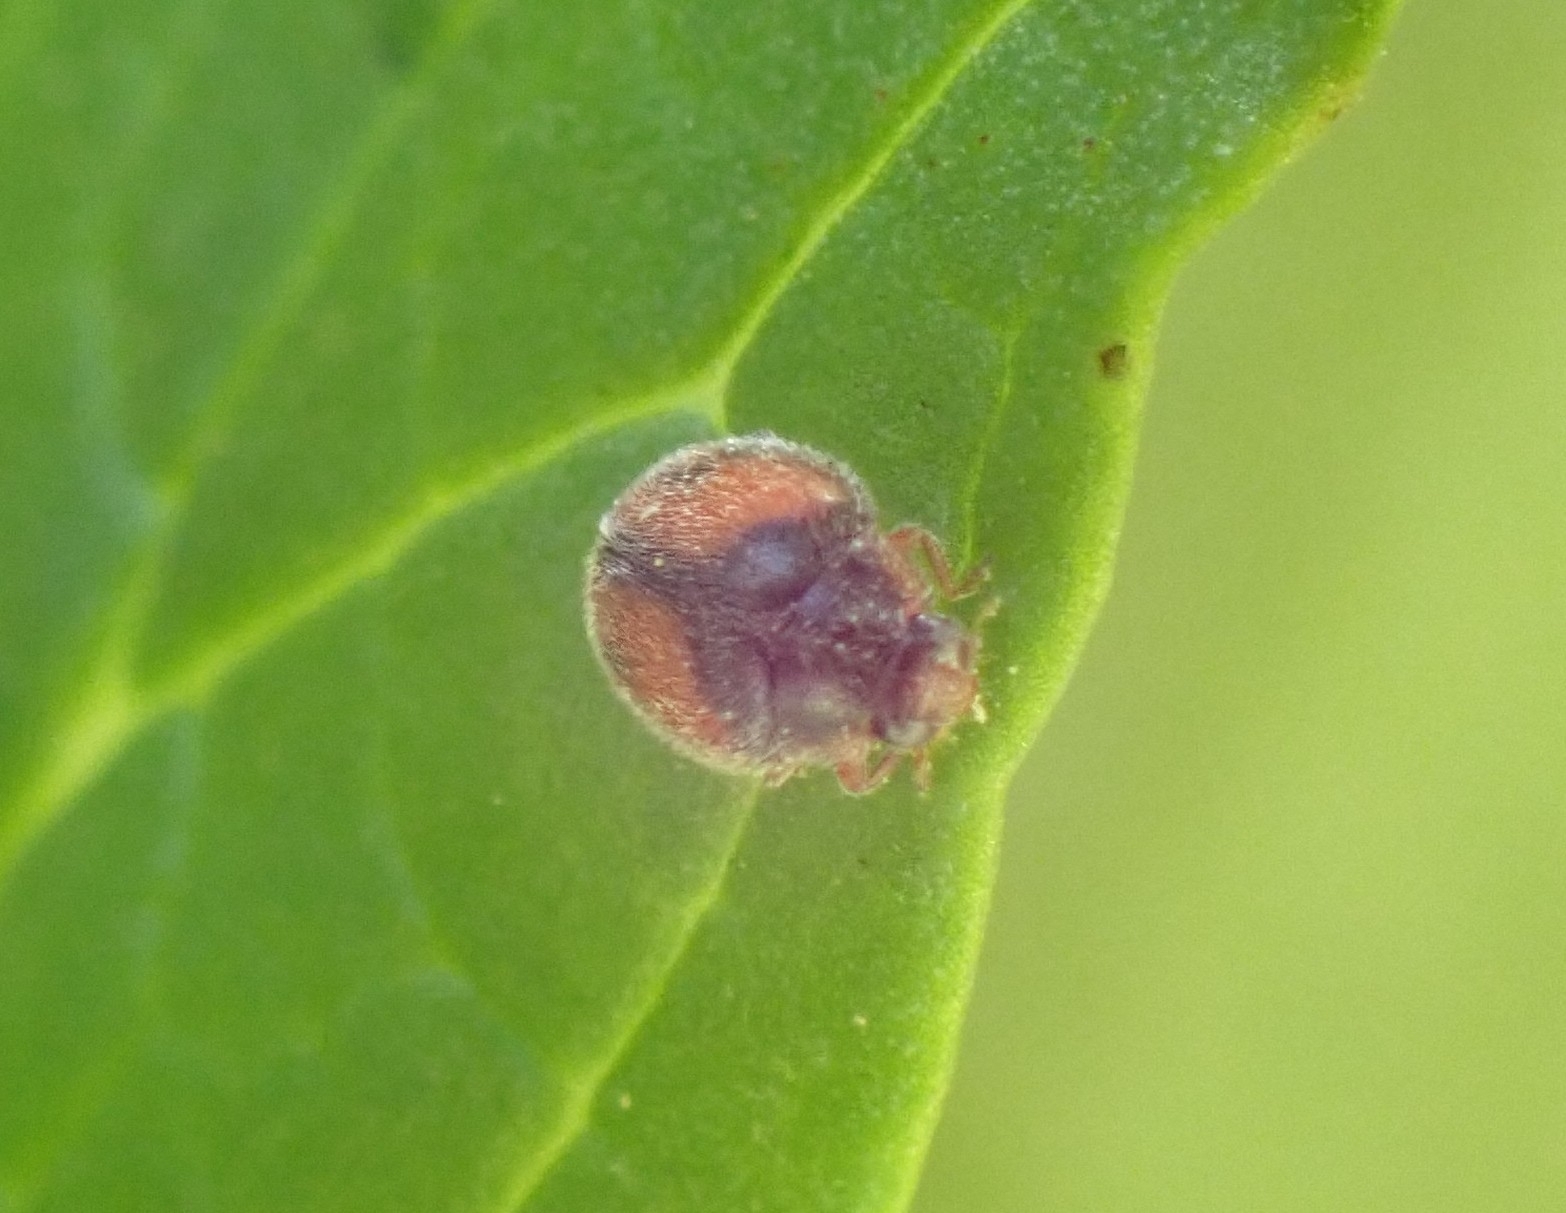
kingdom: Animalia
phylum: Arthropoda
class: Insecta
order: Coleoptera
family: Coccinellidae
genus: Scymnus
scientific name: Scymnus canariensis
